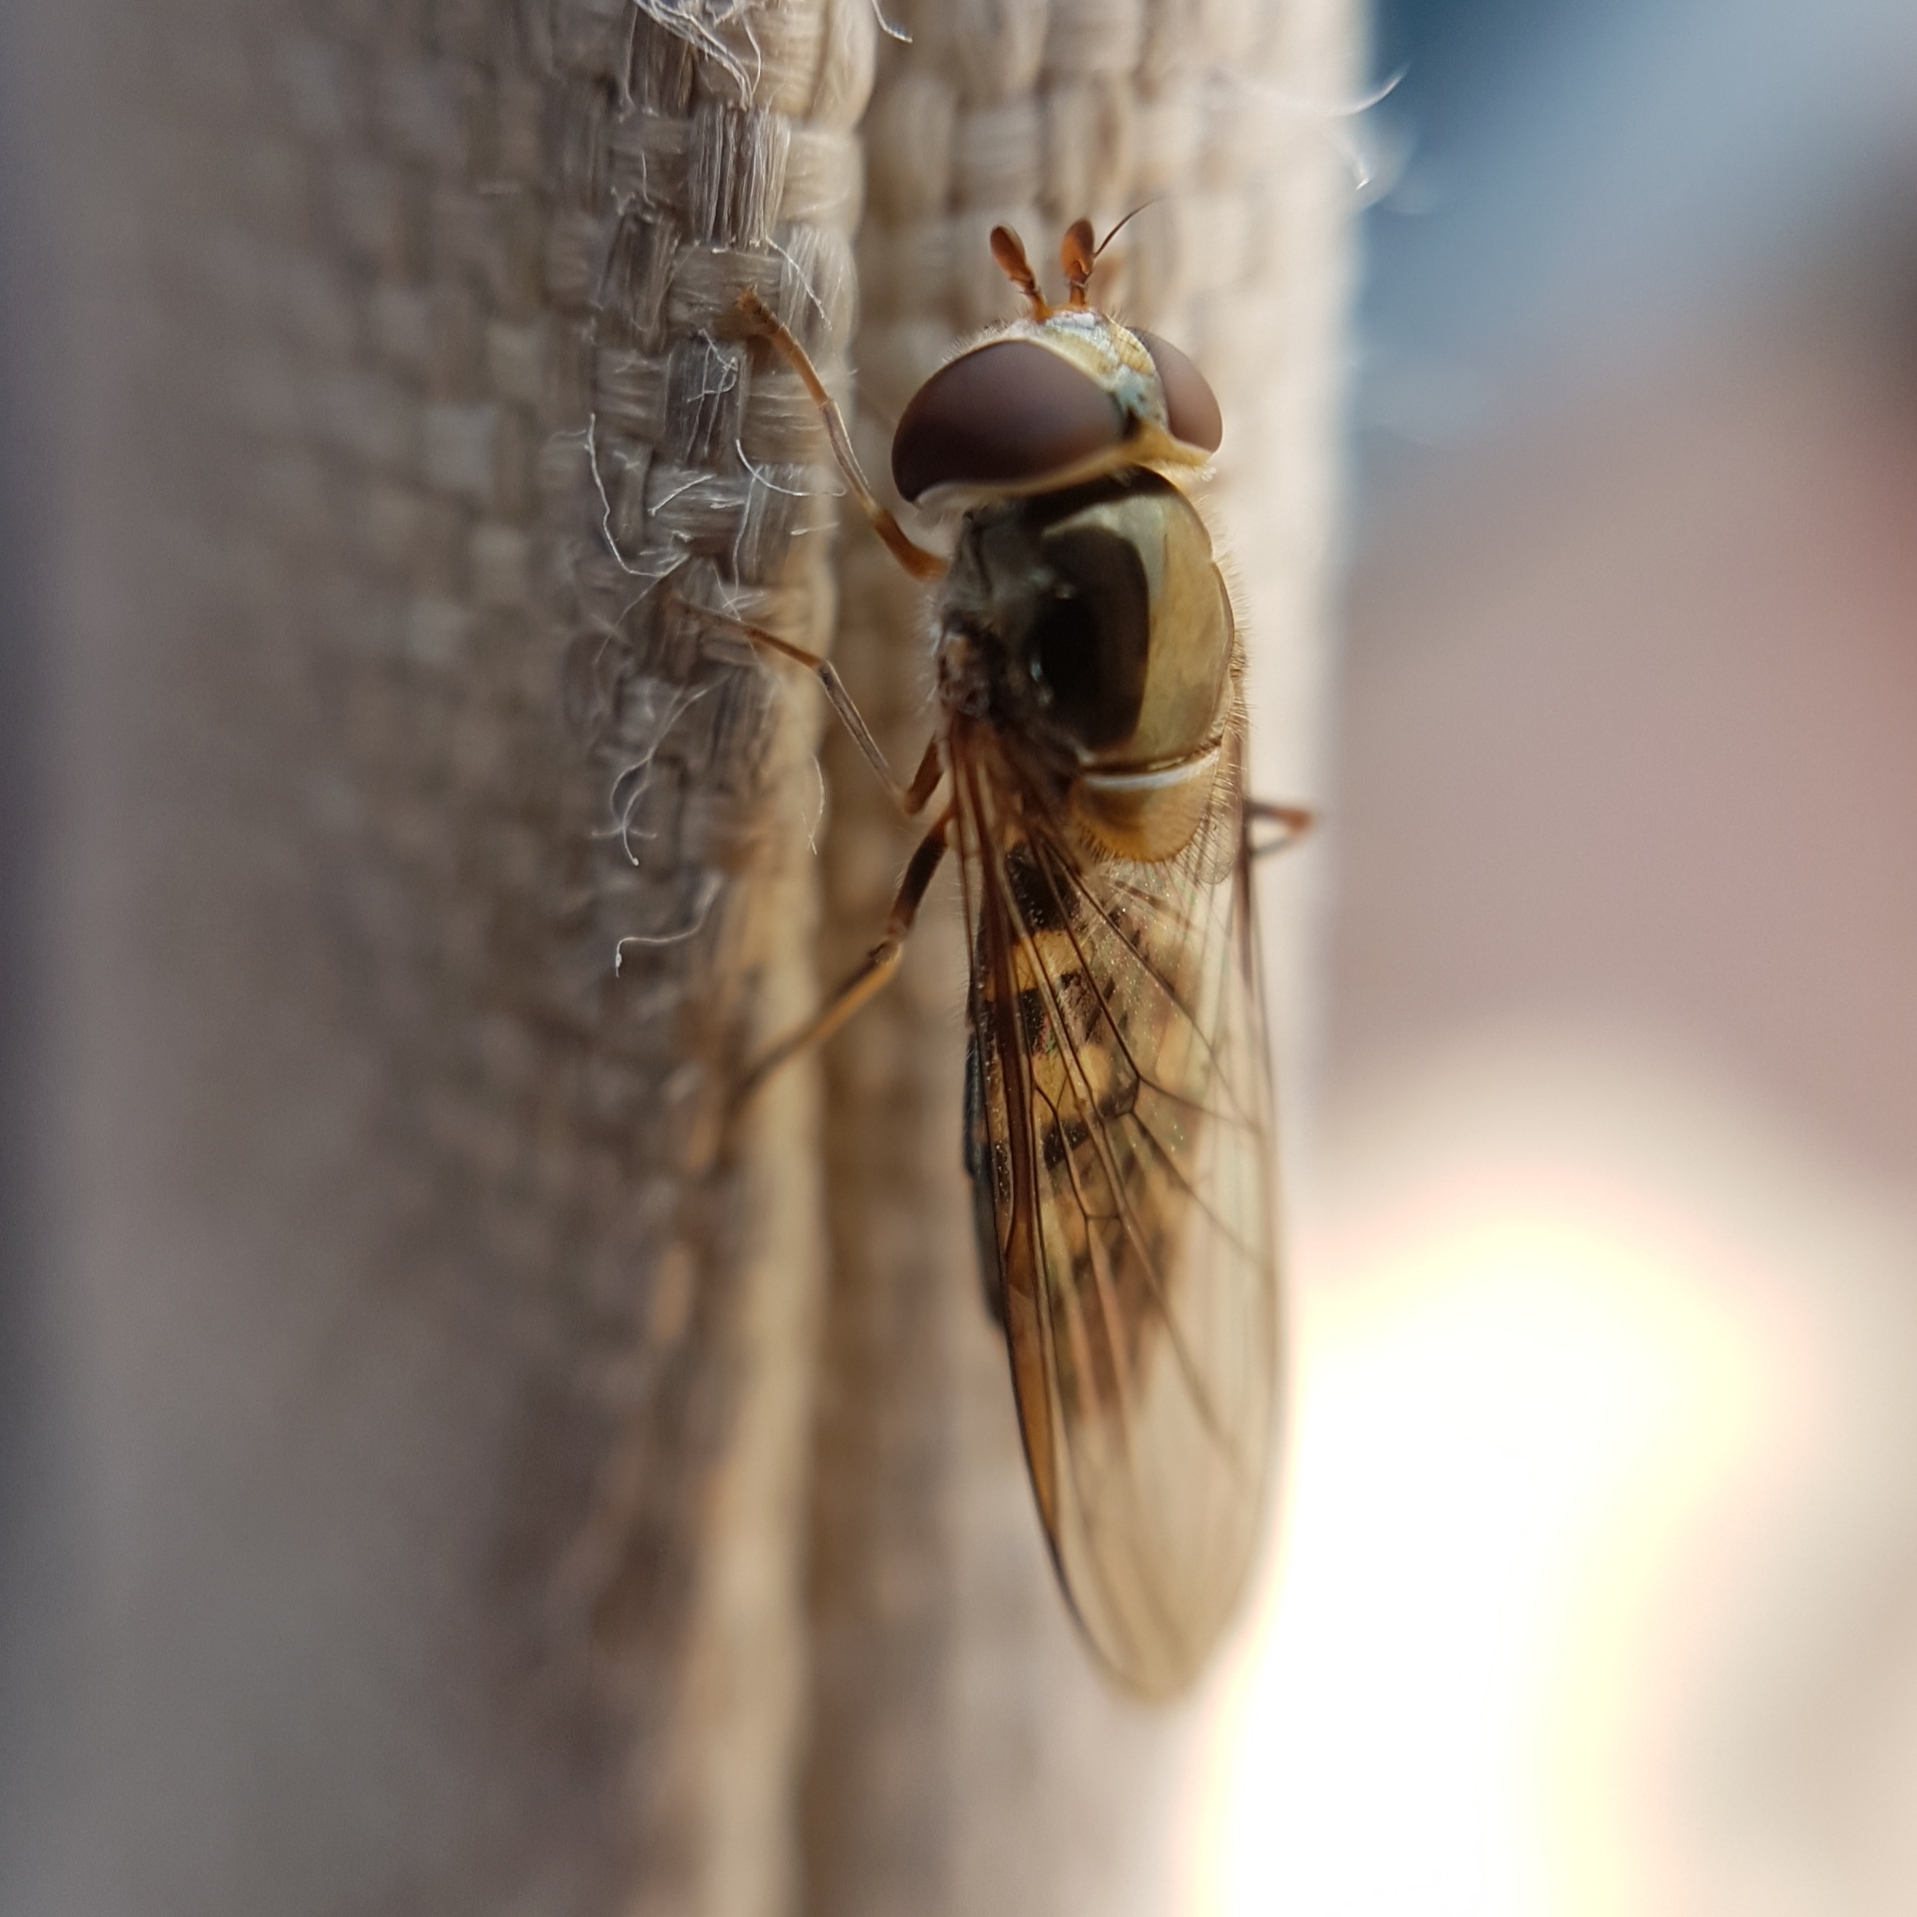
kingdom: Animalia
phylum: Arthropoda
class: Insecta
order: Diptera
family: Syrphidae
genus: Meliscaeva
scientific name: Meliscaeva auricollis
